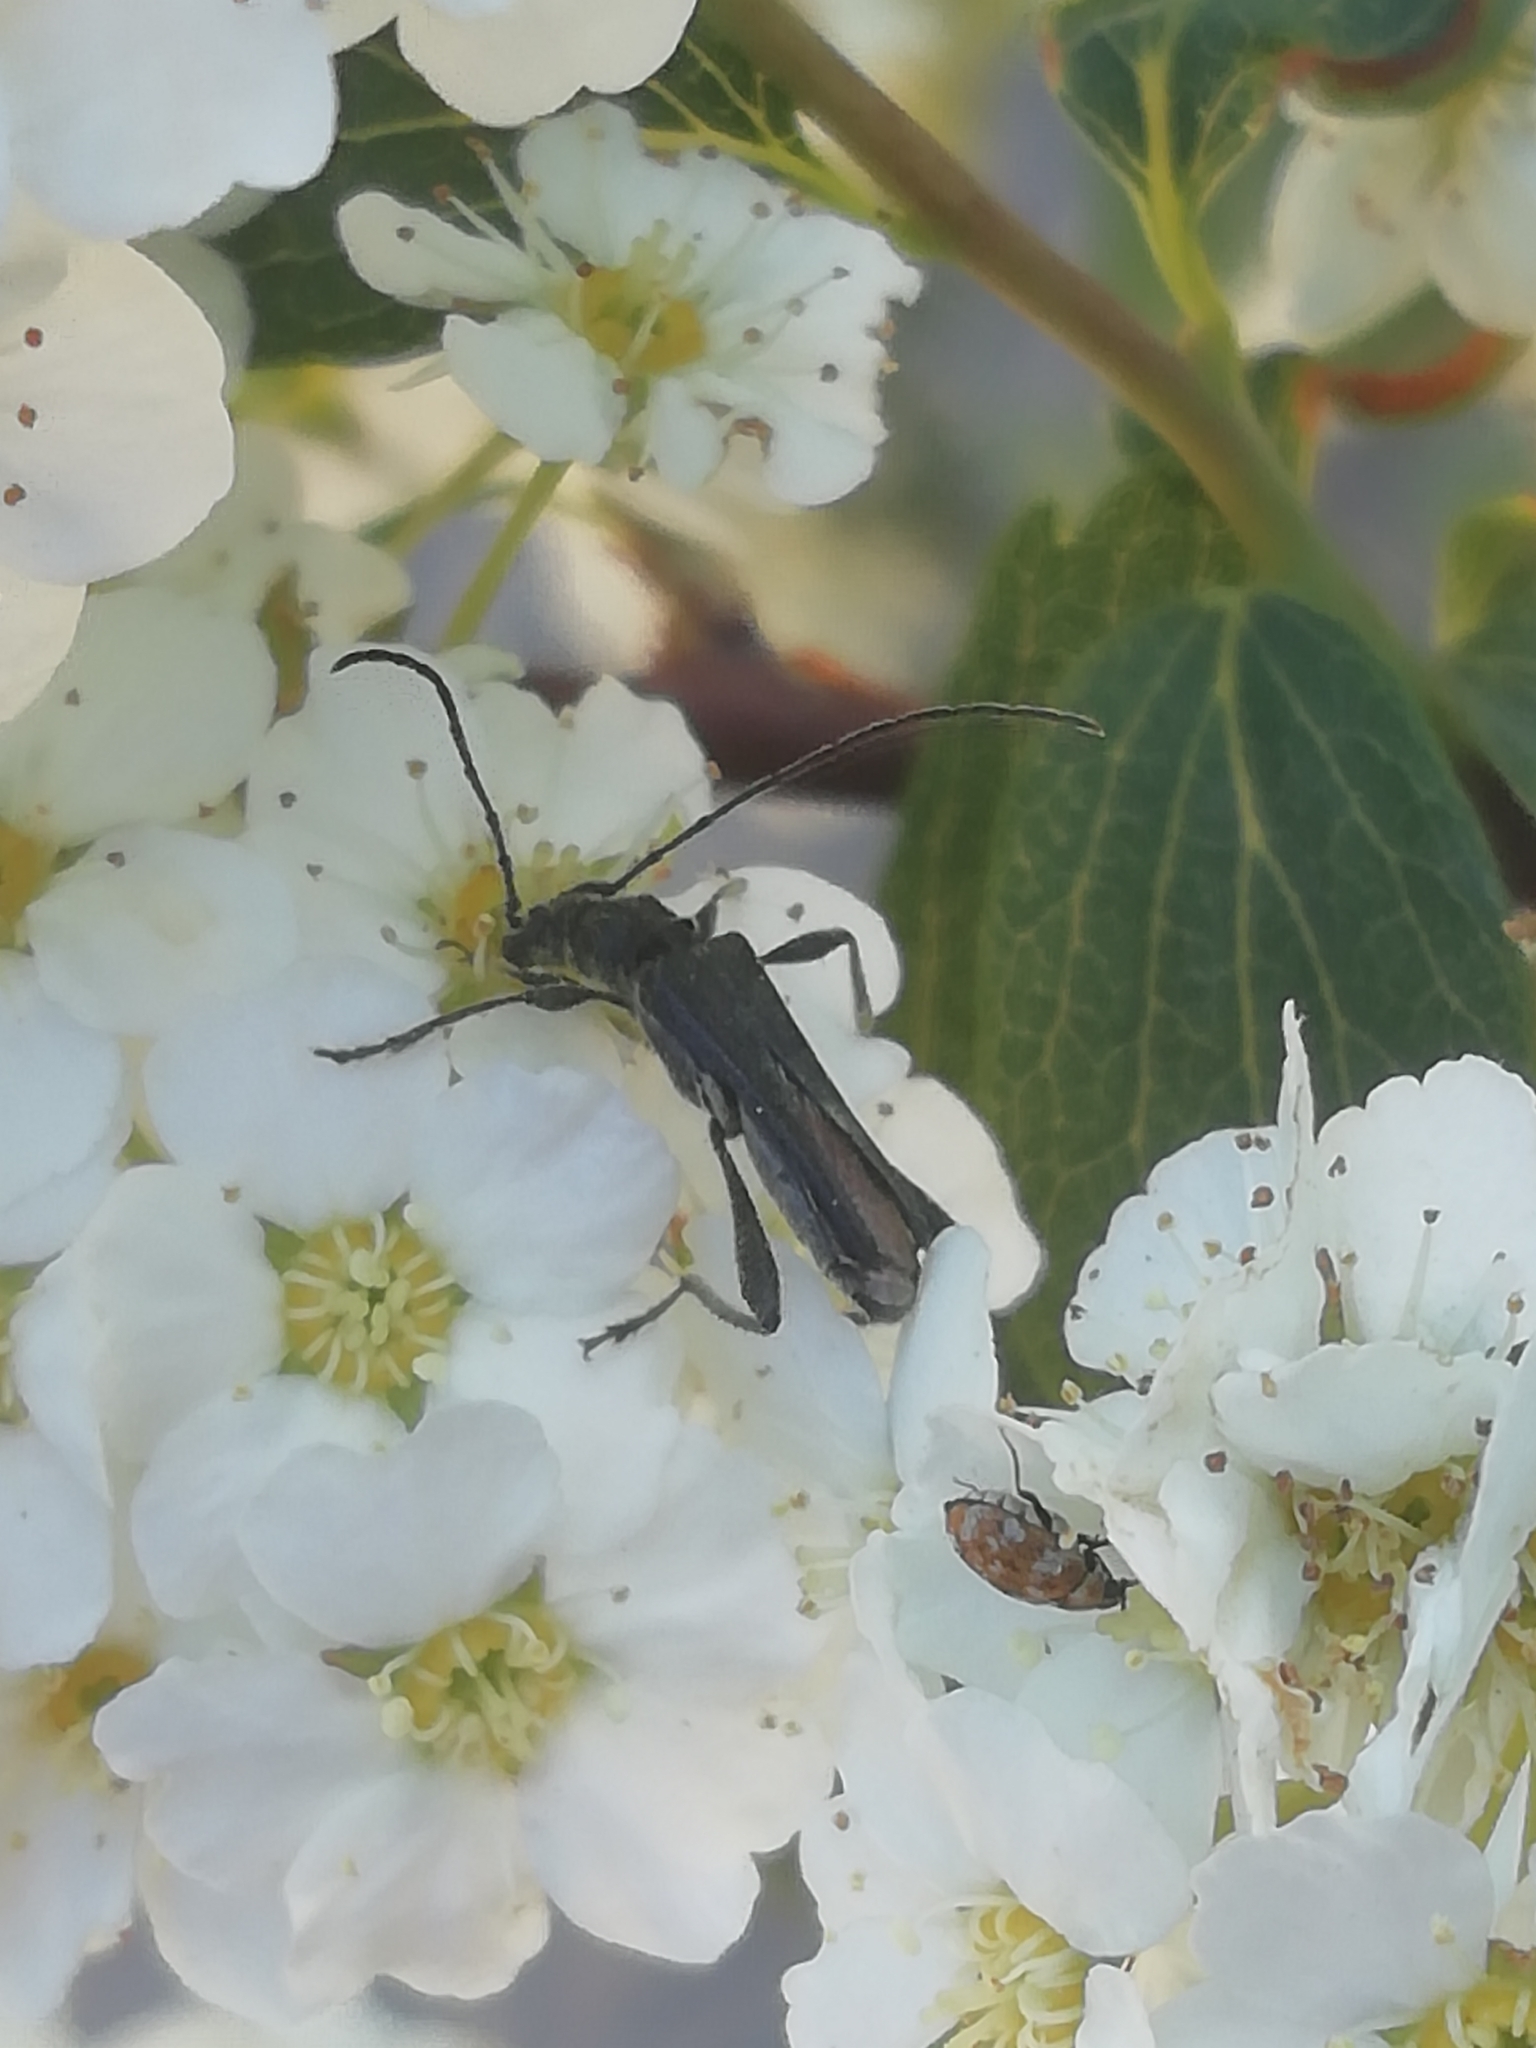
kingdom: Animalia
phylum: Arthropoda
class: Insecta
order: Coleoptera
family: Cerambycidae
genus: Callimoxys
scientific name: Callimoxys gracilis
